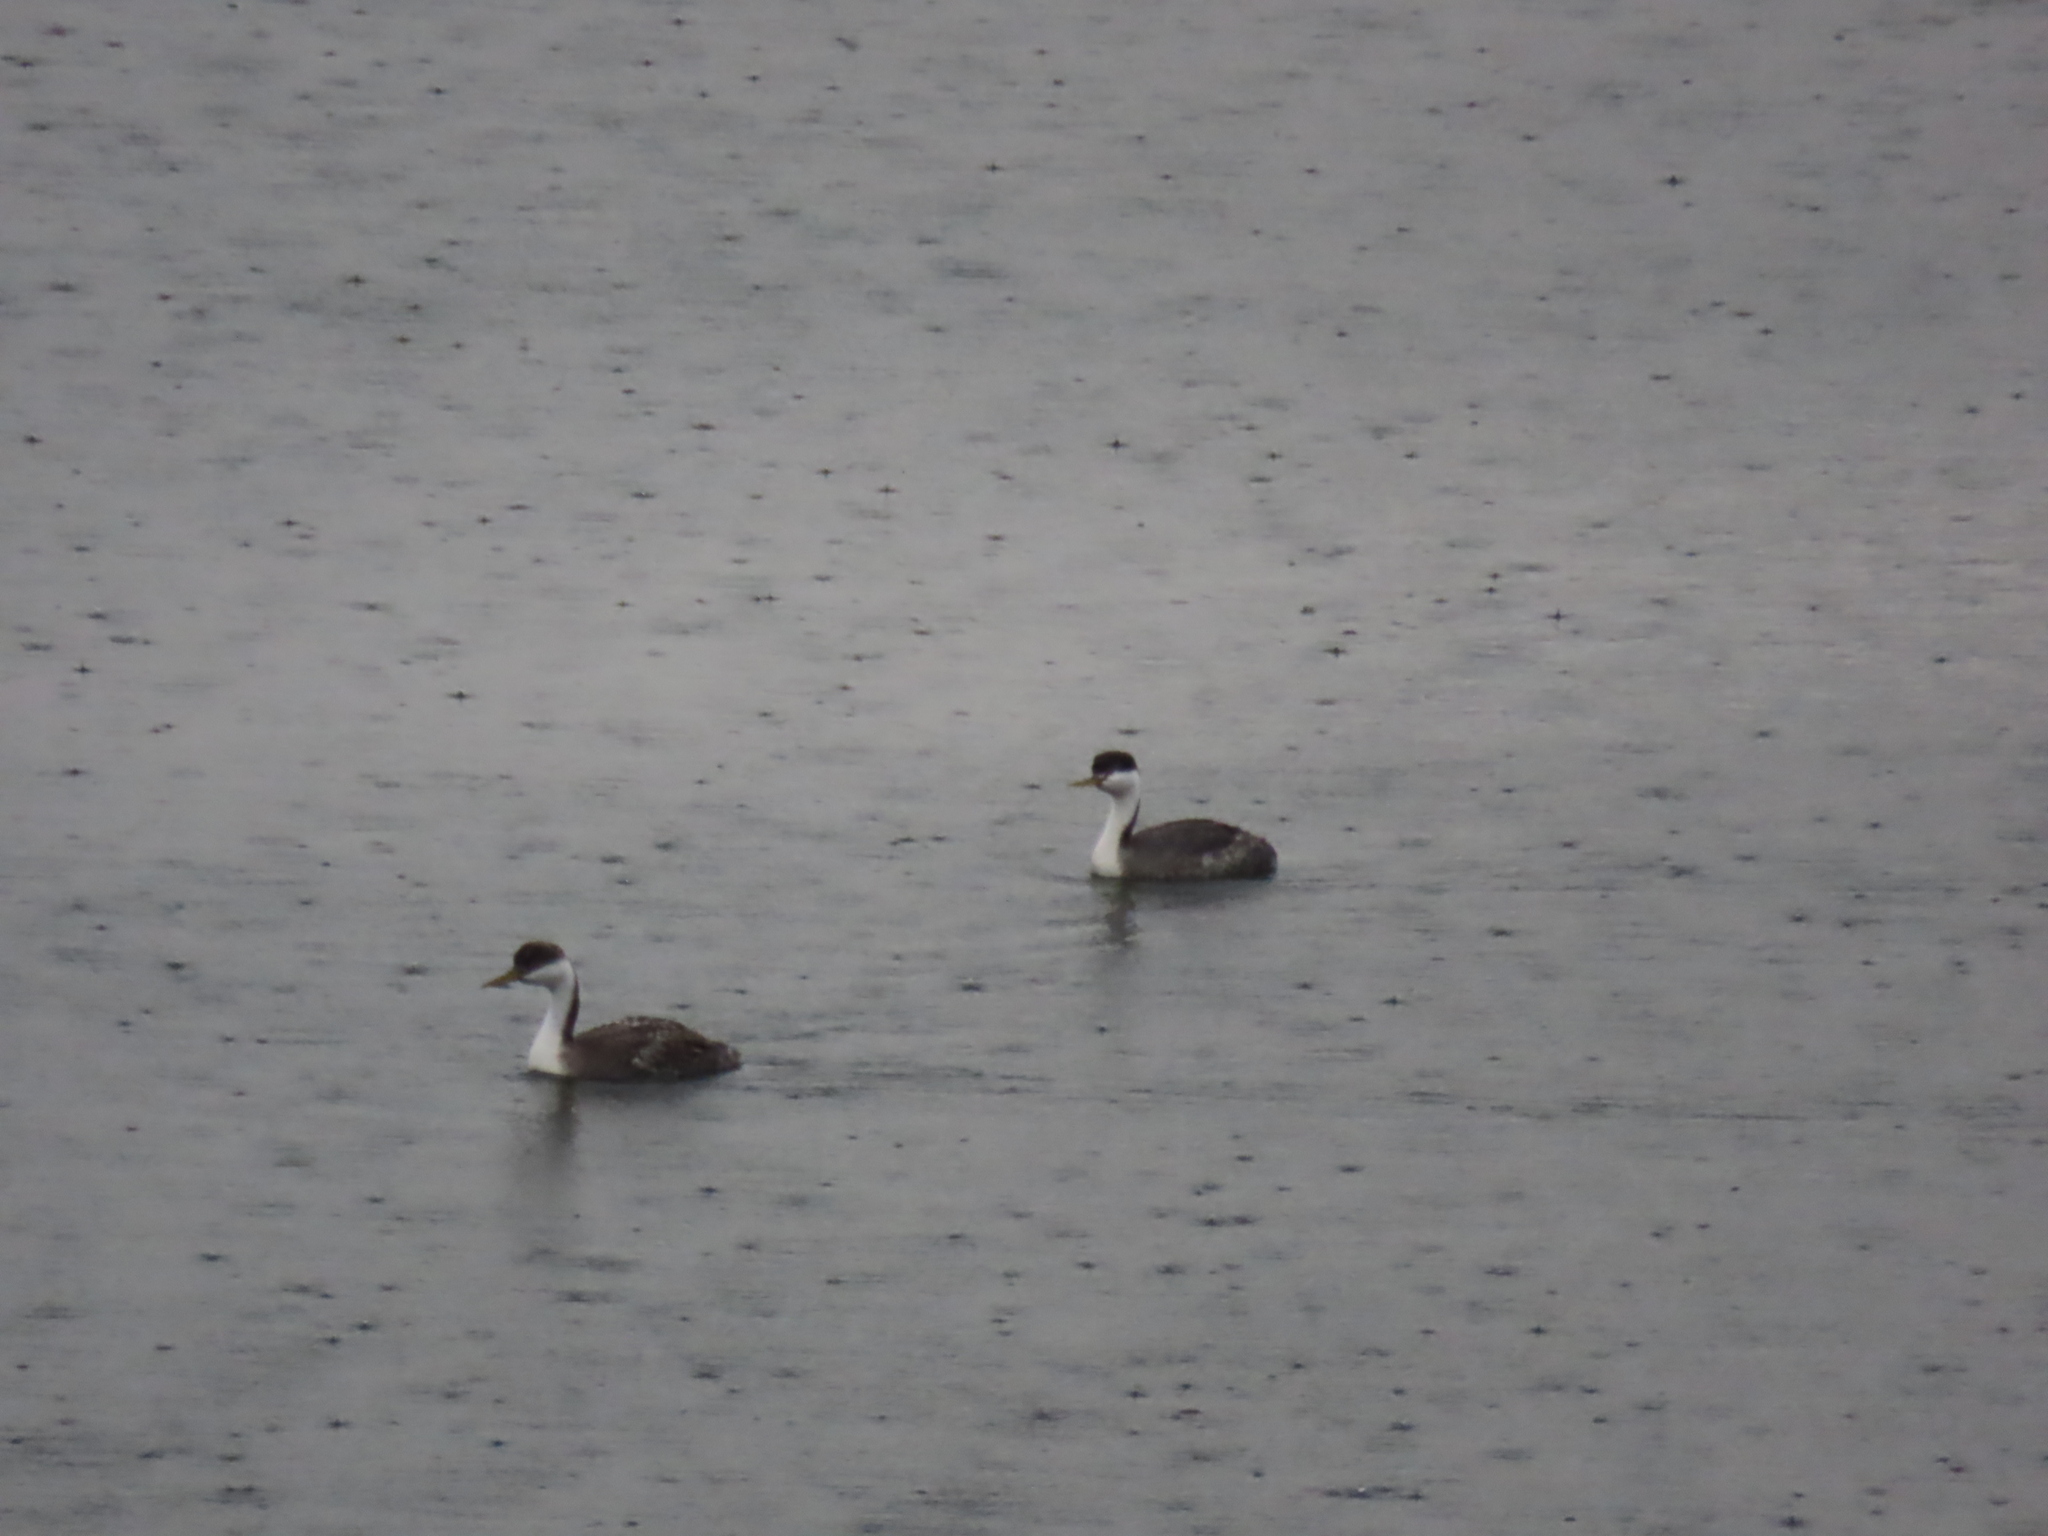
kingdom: Animalia
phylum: Chordata
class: Aves
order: Podicipediformes
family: Podicipedidae
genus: Aechmophorus
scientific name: Aechmophorus occidentalis
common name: Western grebe
